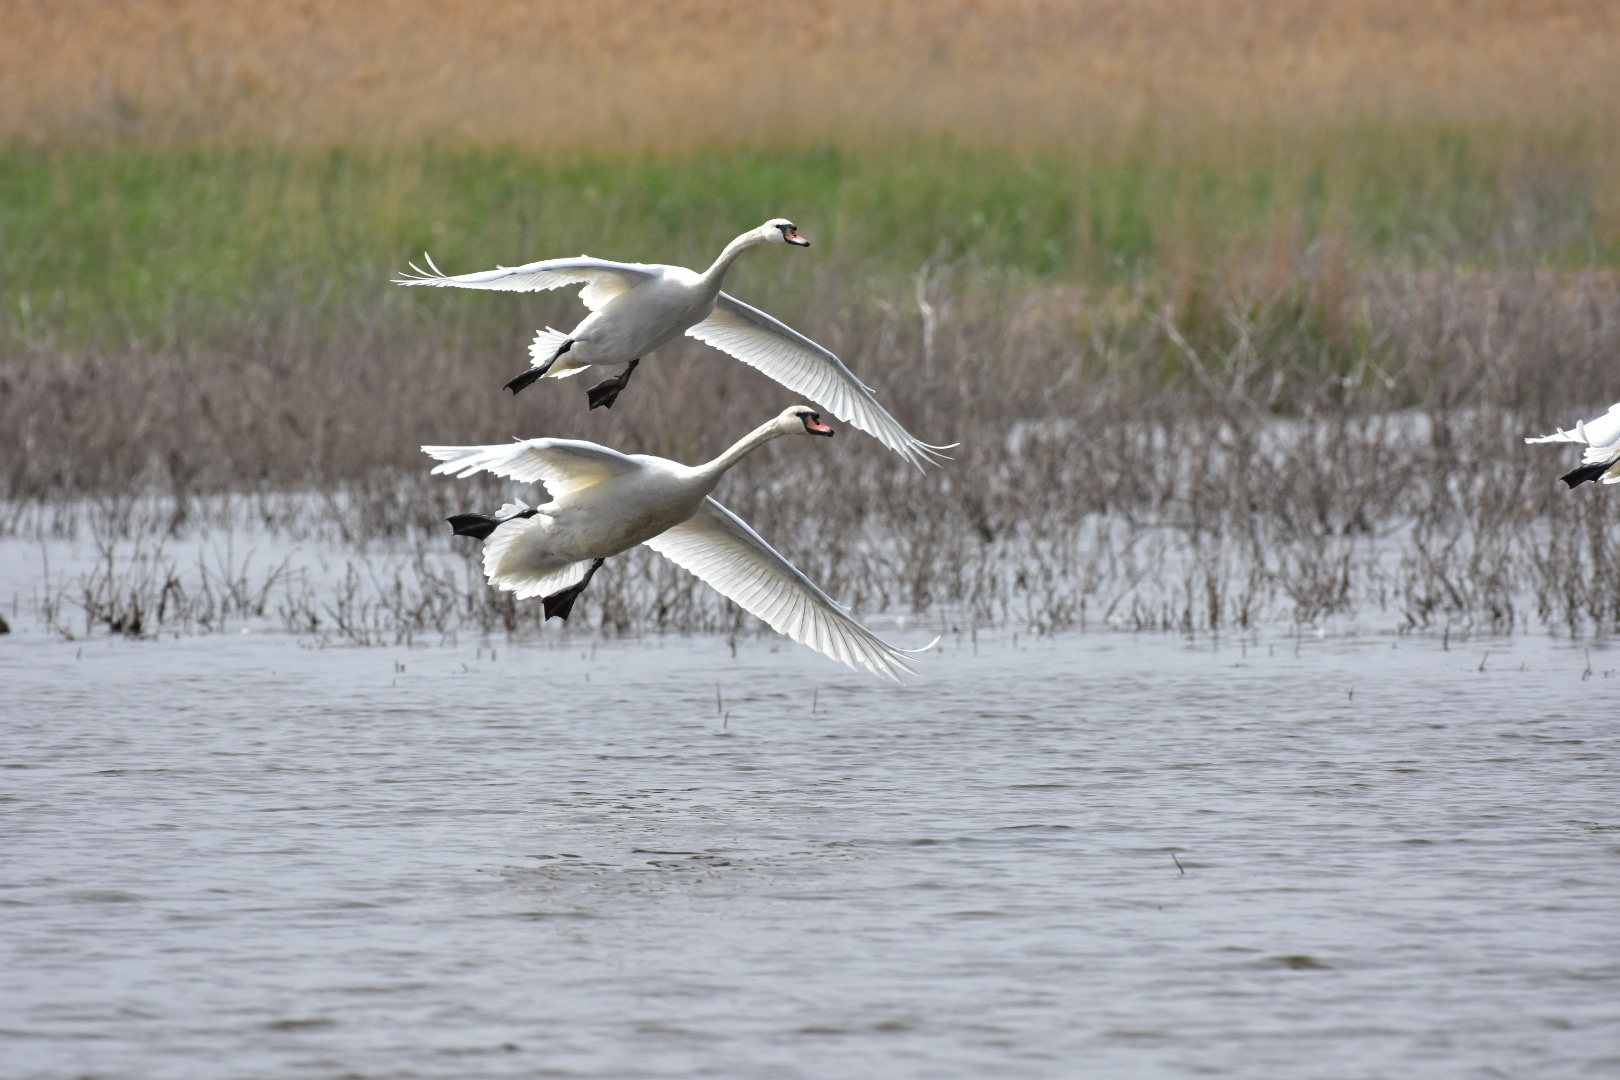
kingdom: Animalia
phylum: Chordata
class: Aves
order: Anseriformes
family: Anatidae
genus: Cygnus
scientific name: Cygnus olor
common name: Mute swan
